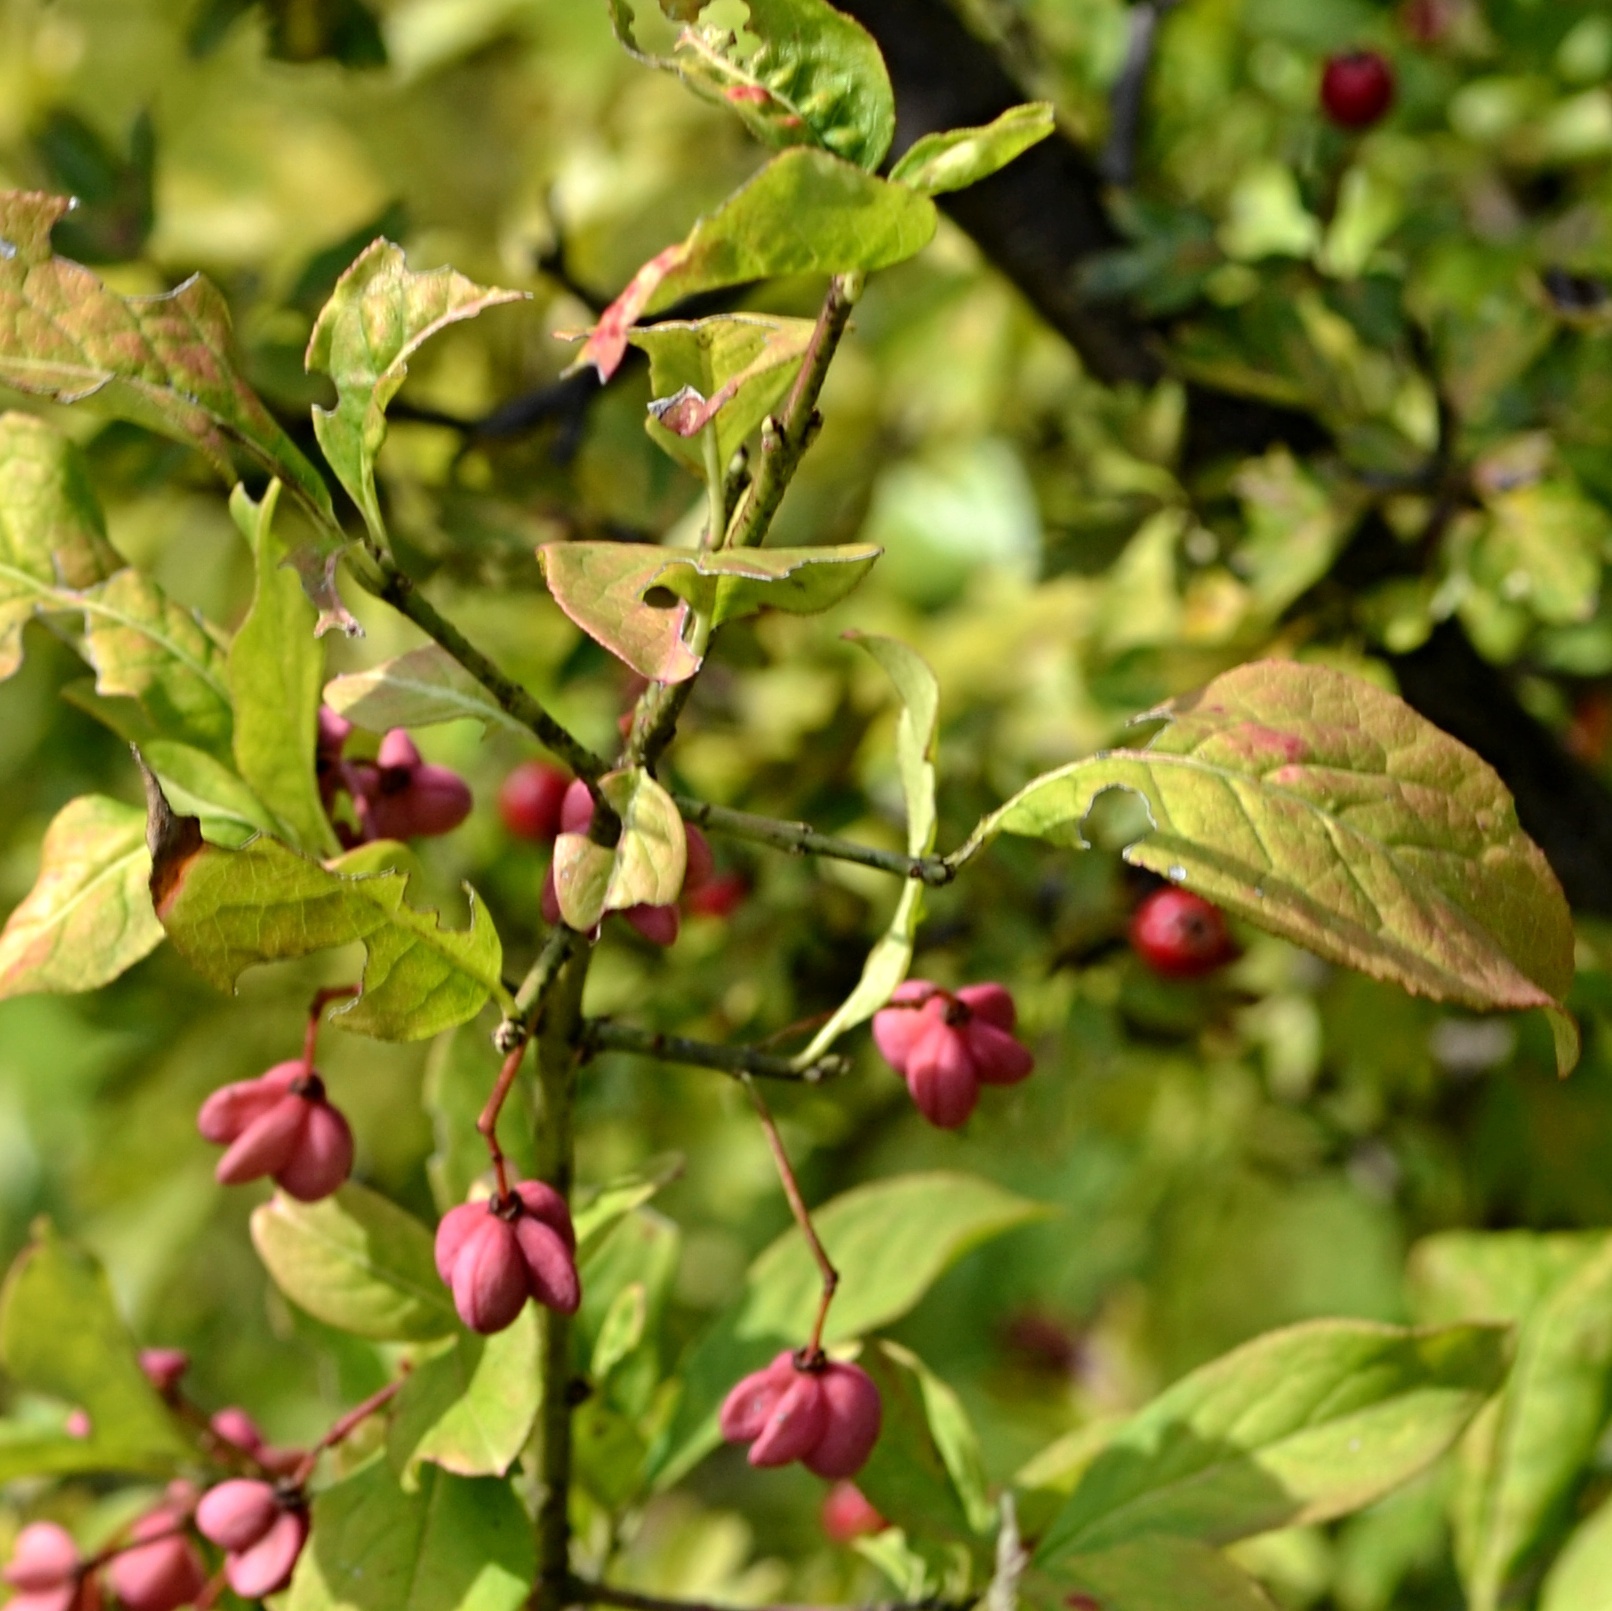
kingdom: Plantae
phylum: Tracheophyta
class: Magnoliopsida
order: Celastrales
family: Celastraceae
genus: Euonymus
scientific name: Euonymus europaeus
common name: Spindle
